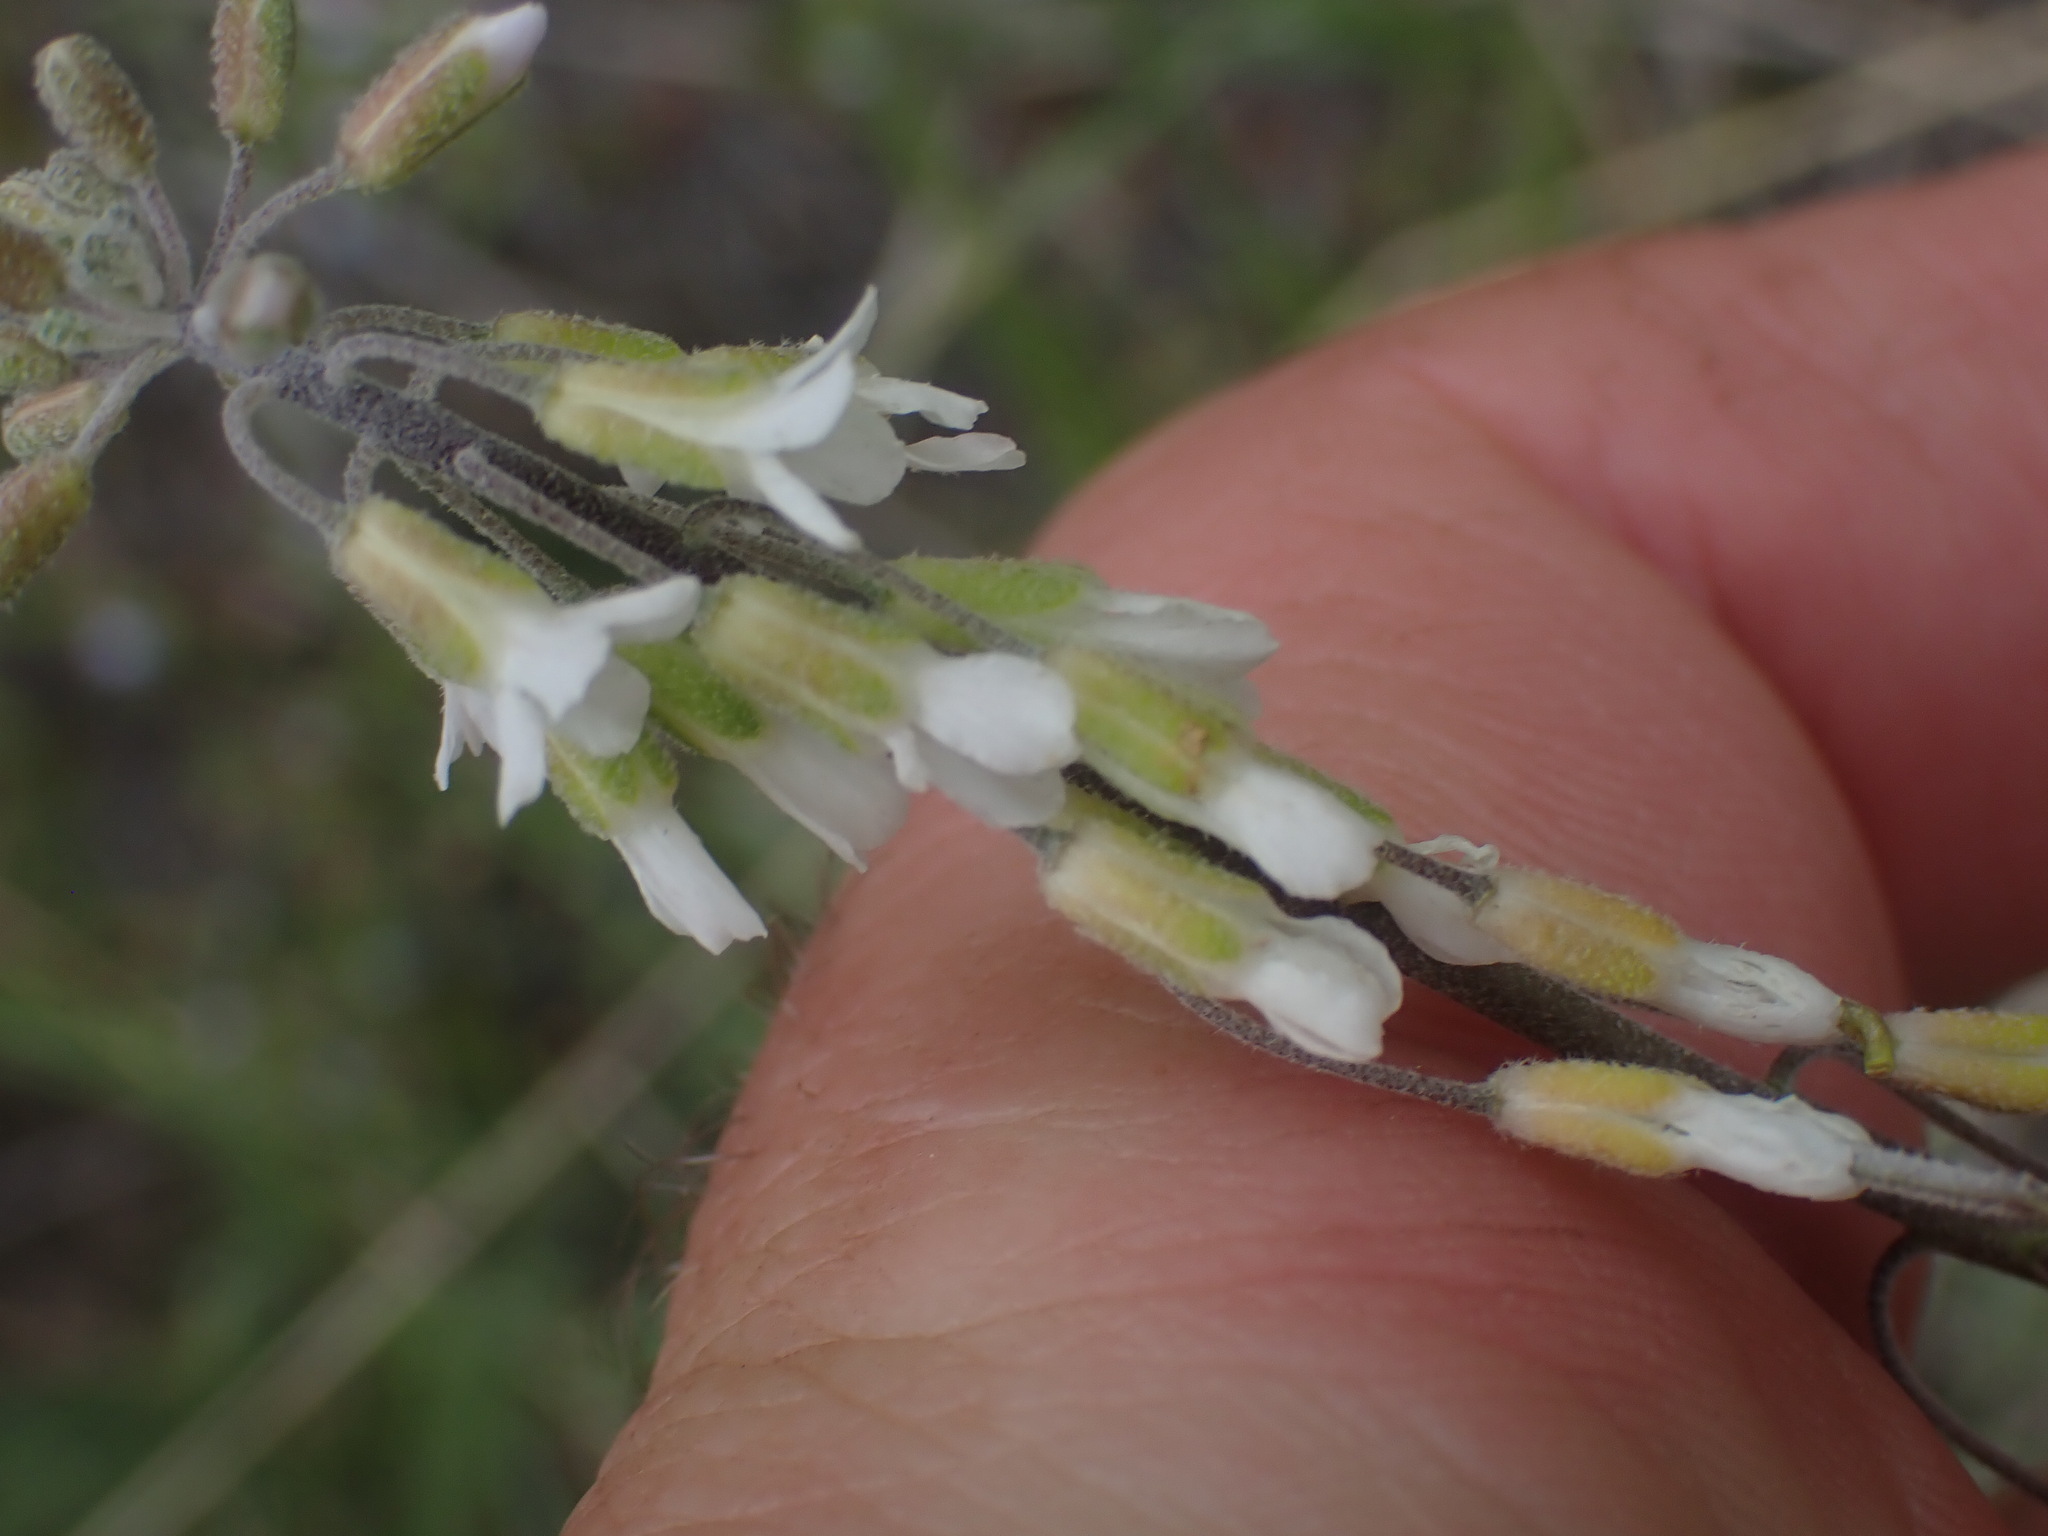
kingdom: Plantae
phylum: Tracheophyta
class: Magnoliopsida
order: Brassicales
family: Brassicaceae
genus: Boechera
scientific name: Boechera retrofracta
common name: Dangling suncress
